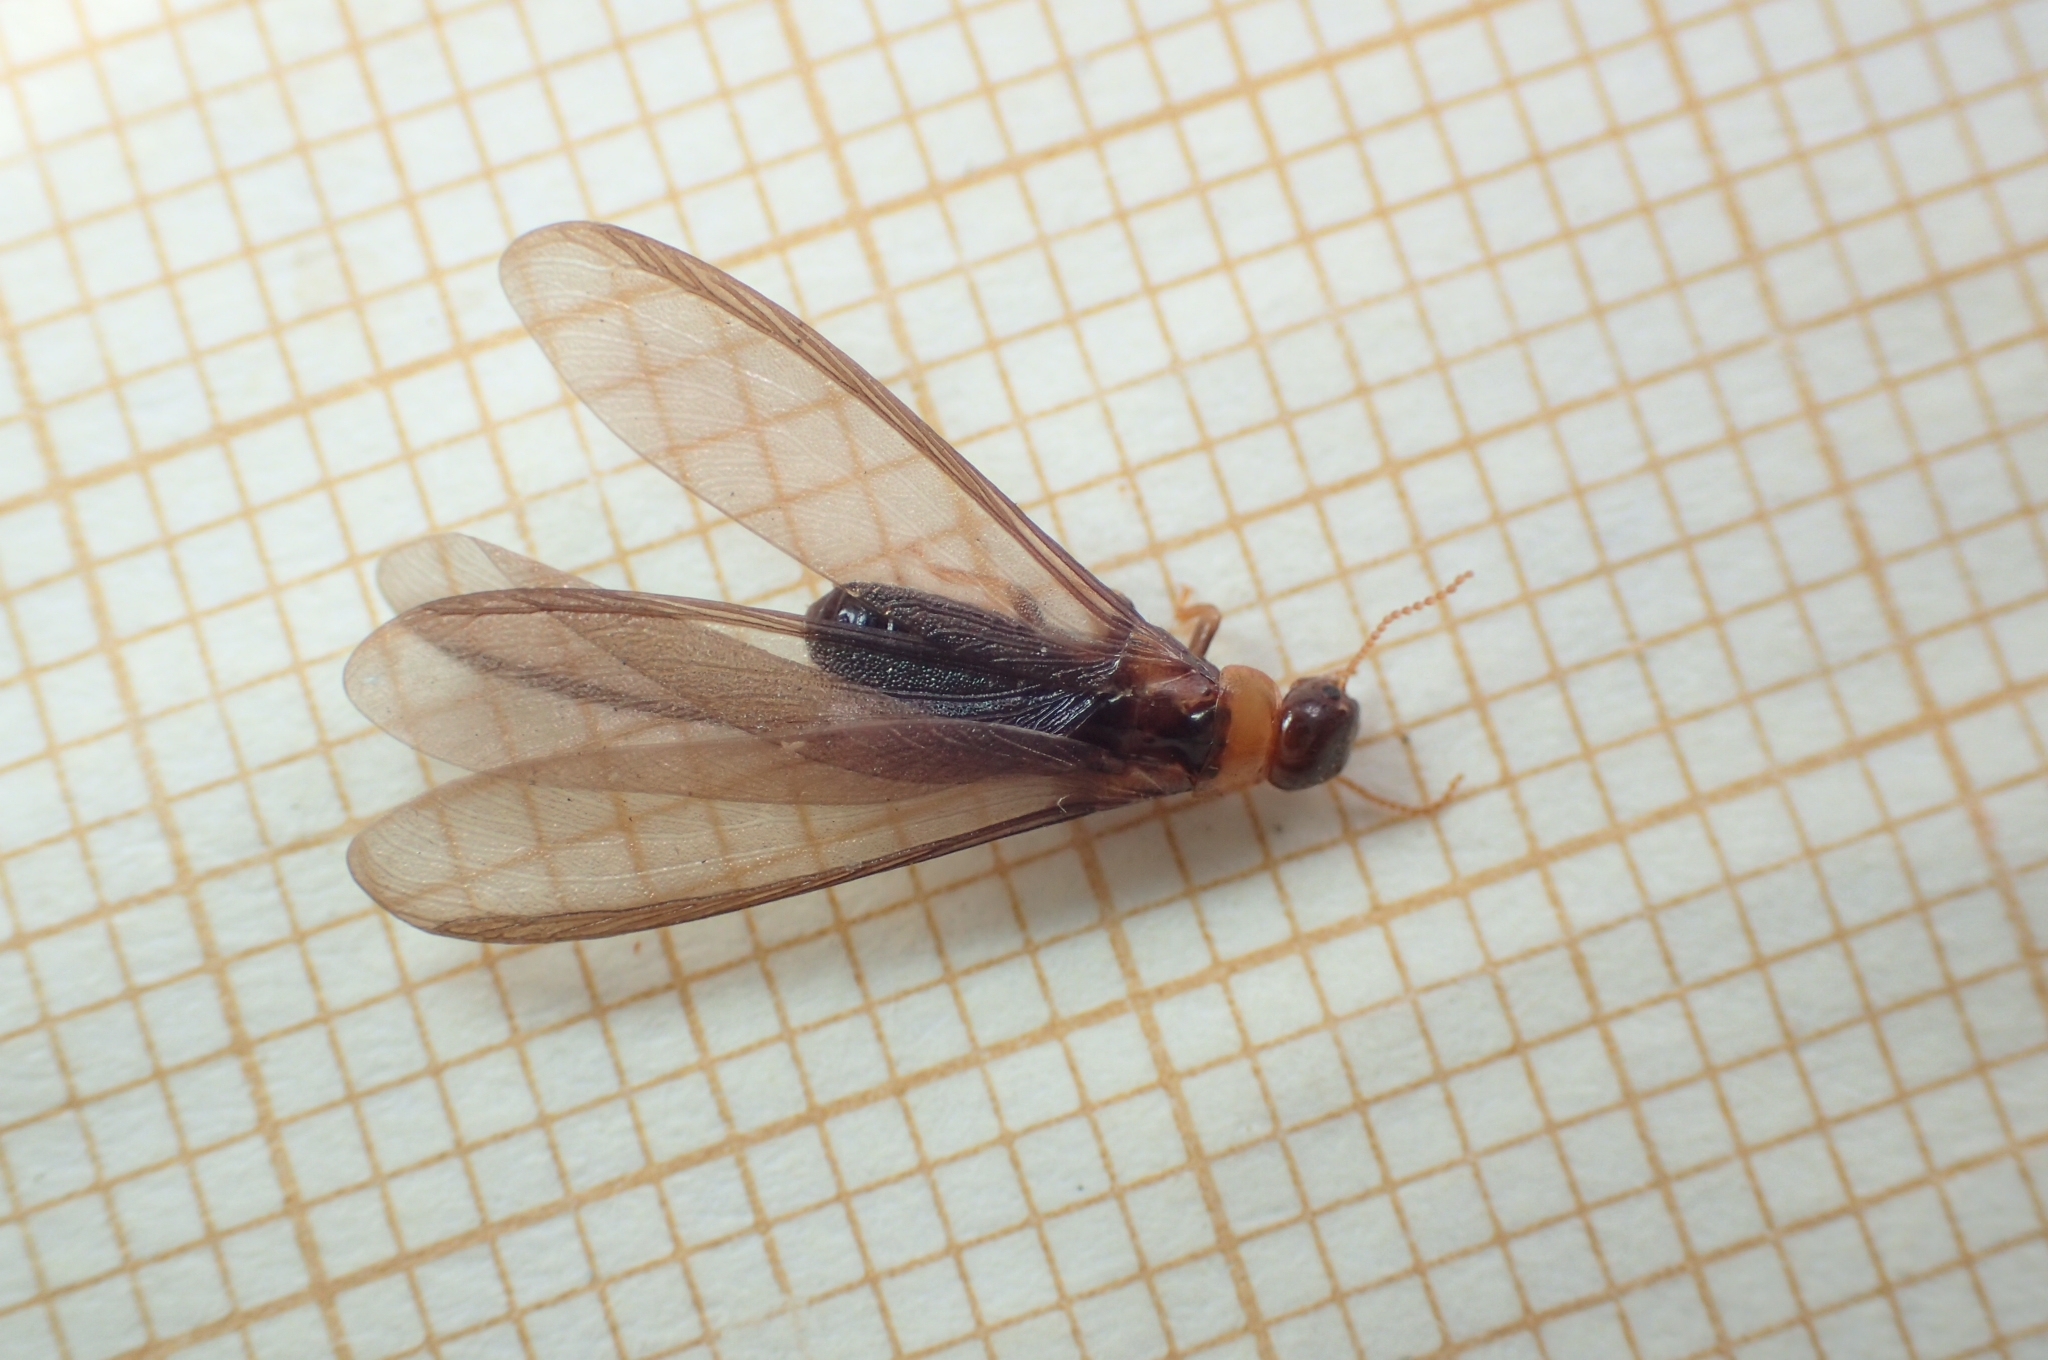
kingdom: Animalia
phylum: Arthropoda
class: Insecta
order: Blattodea
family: Kalotermitidae
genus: Kalotermes
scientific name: Kalotermes flavicollis
